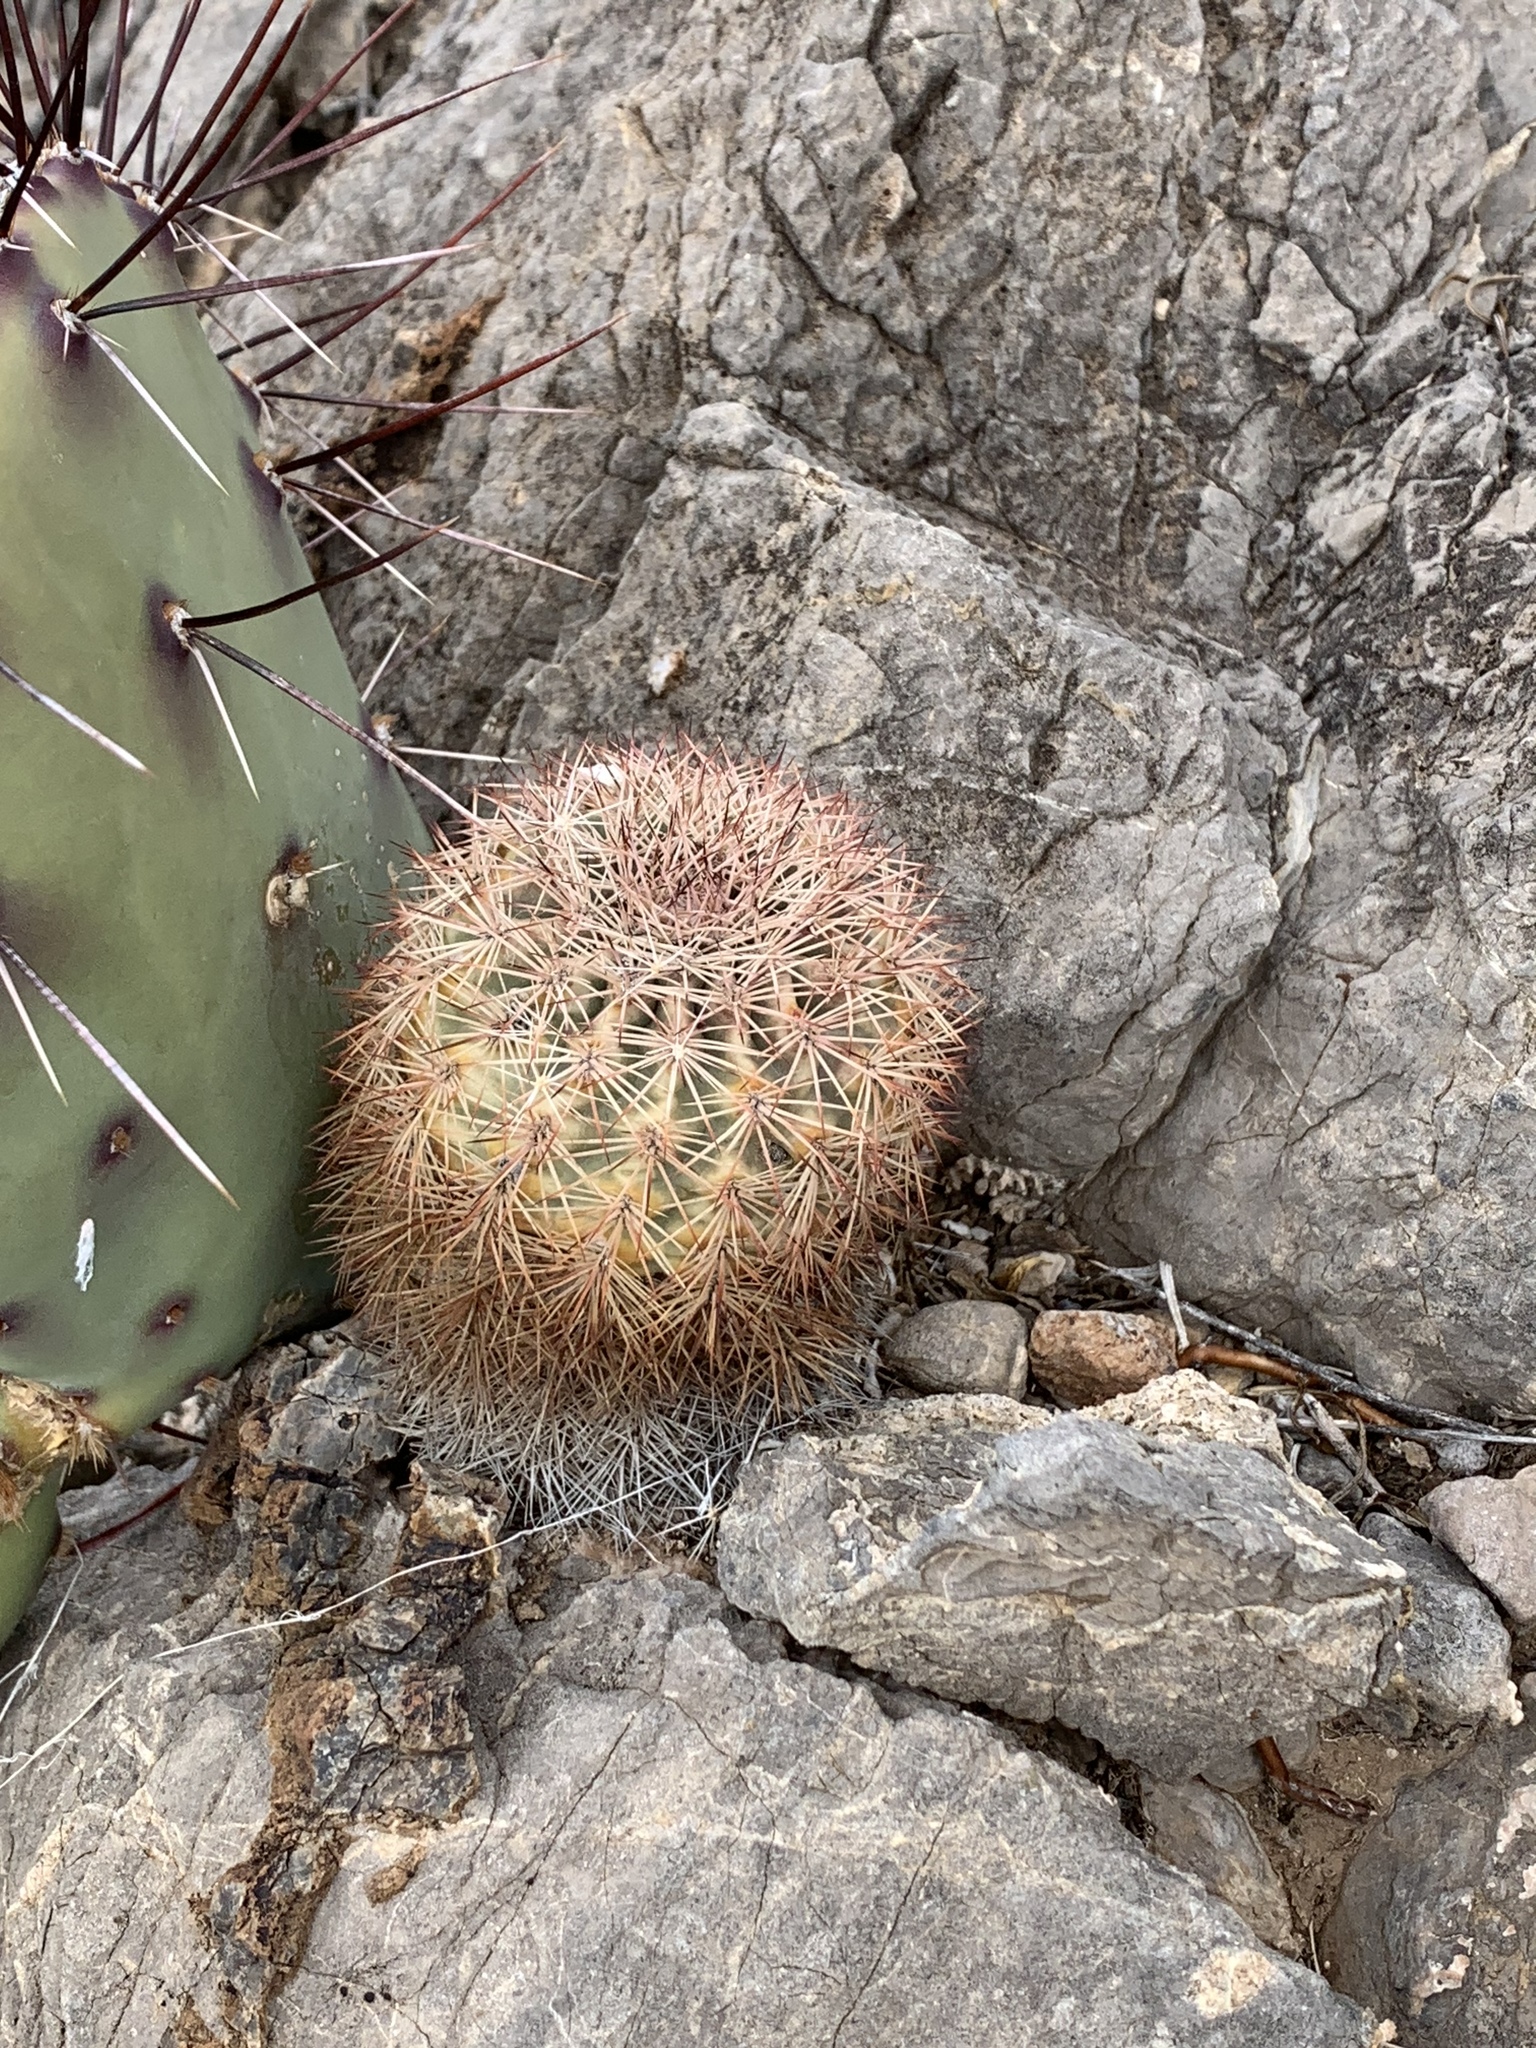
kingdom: Plantae
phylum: Tracheophyta
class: Magnoliopsida
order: Caryophyllales
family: Cactaceae
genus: Echinocereus
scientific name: Echinocereus dasyacanthus
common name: Spiny hedgehog cactus
